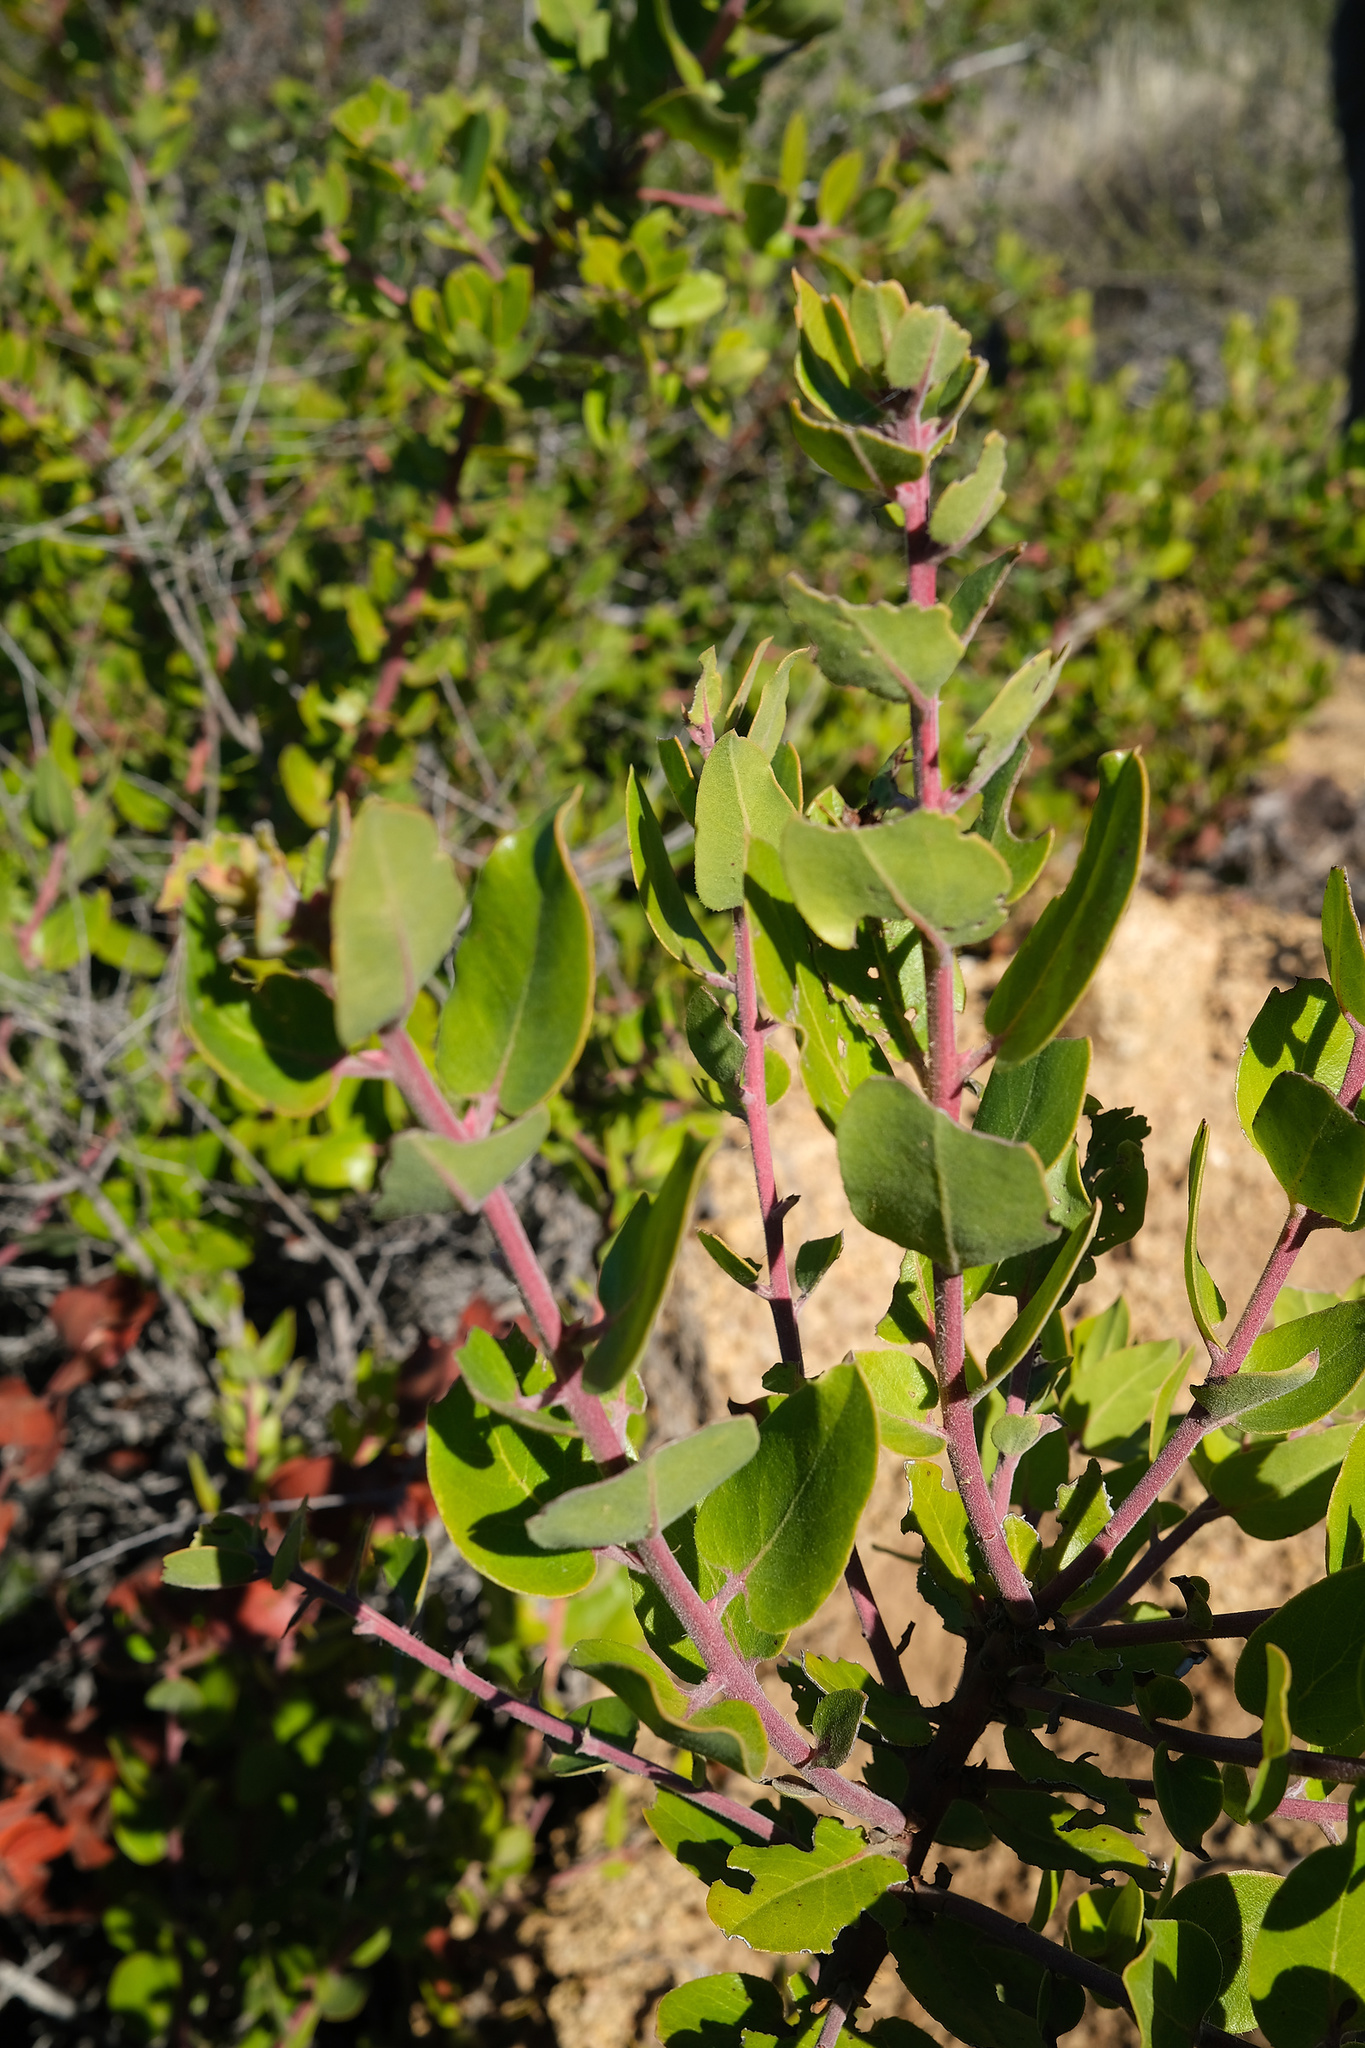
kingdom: Plantae
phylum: Tracheophyta
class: Magnoliopsida
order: Ericales
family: Ericaceae
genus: Arctostaphylos
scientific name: Arctostaphylos crustacea
